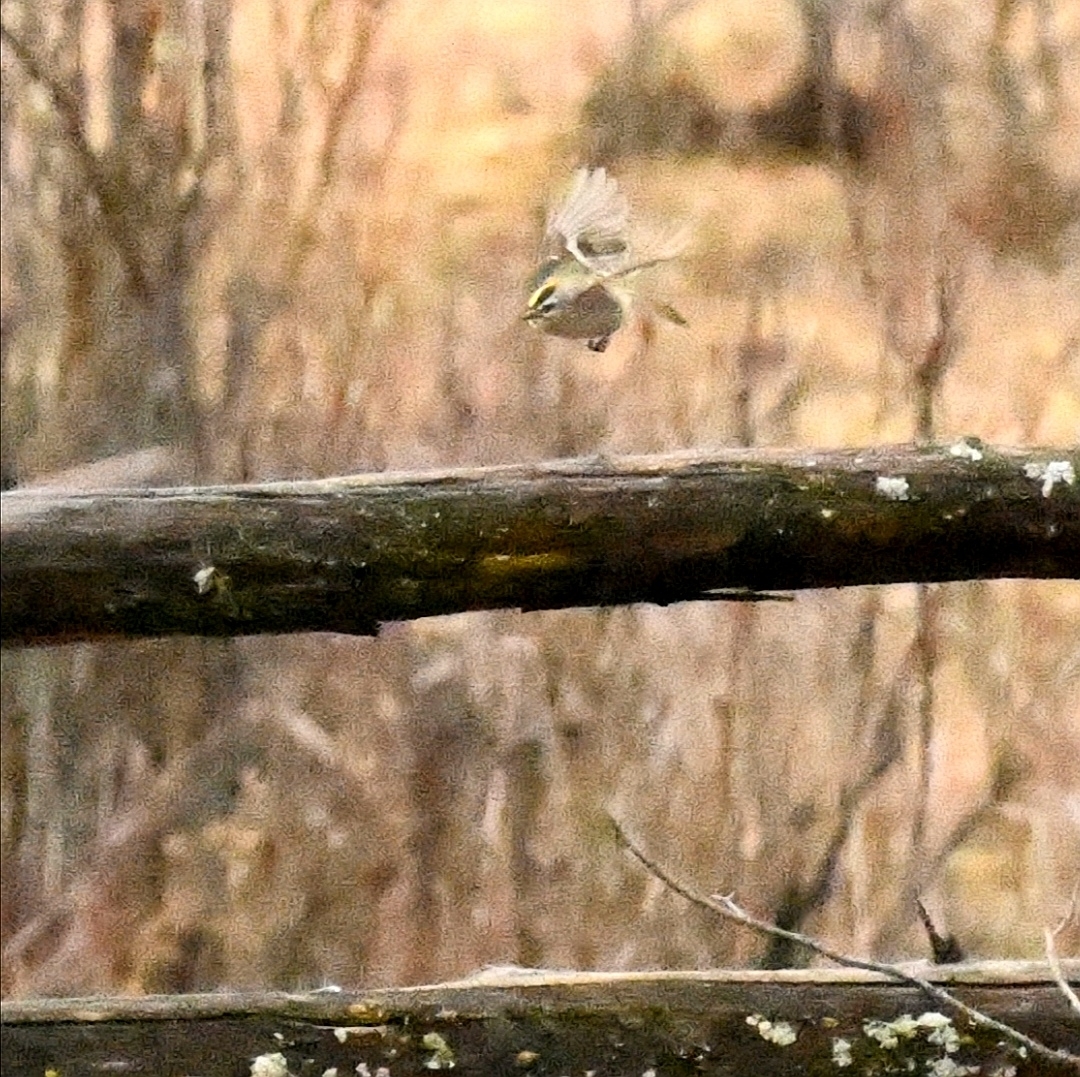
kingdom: Animalia
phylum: Chordata
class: Aves
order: Passeriformes
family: Regulidae
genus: Regulus
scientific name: Regulus satrapa
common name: Golden-crowned kinglet
